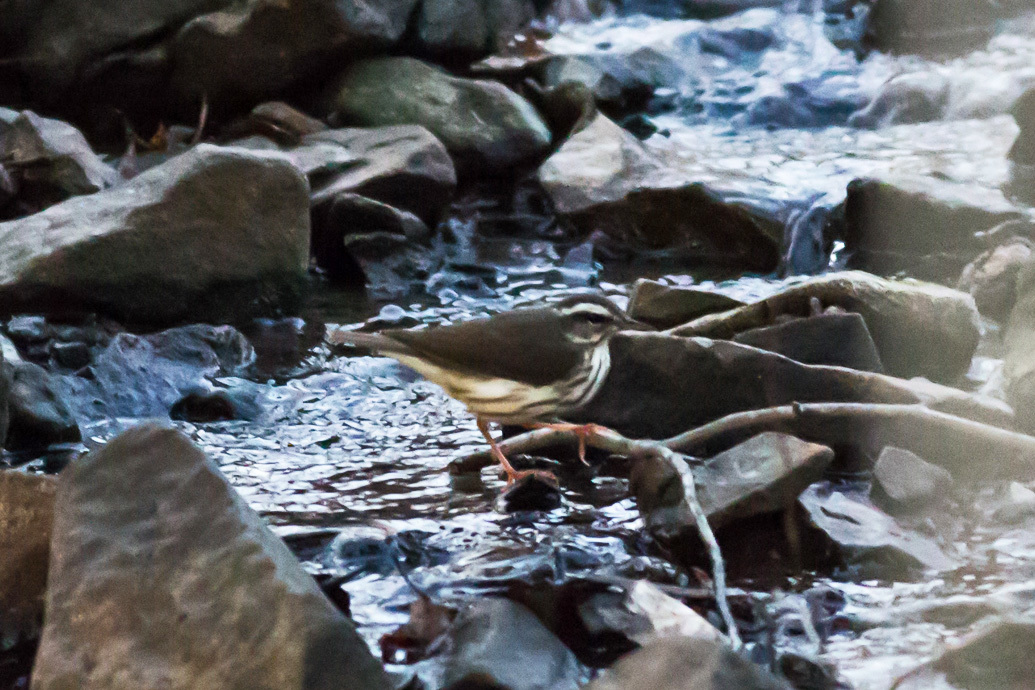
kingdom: Animalia
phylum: Chordata
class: Aves
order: Passeriformes
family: Parulidae
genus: Parkesia
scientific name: Parkesia motacilla
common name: Louisiana waterthrush
